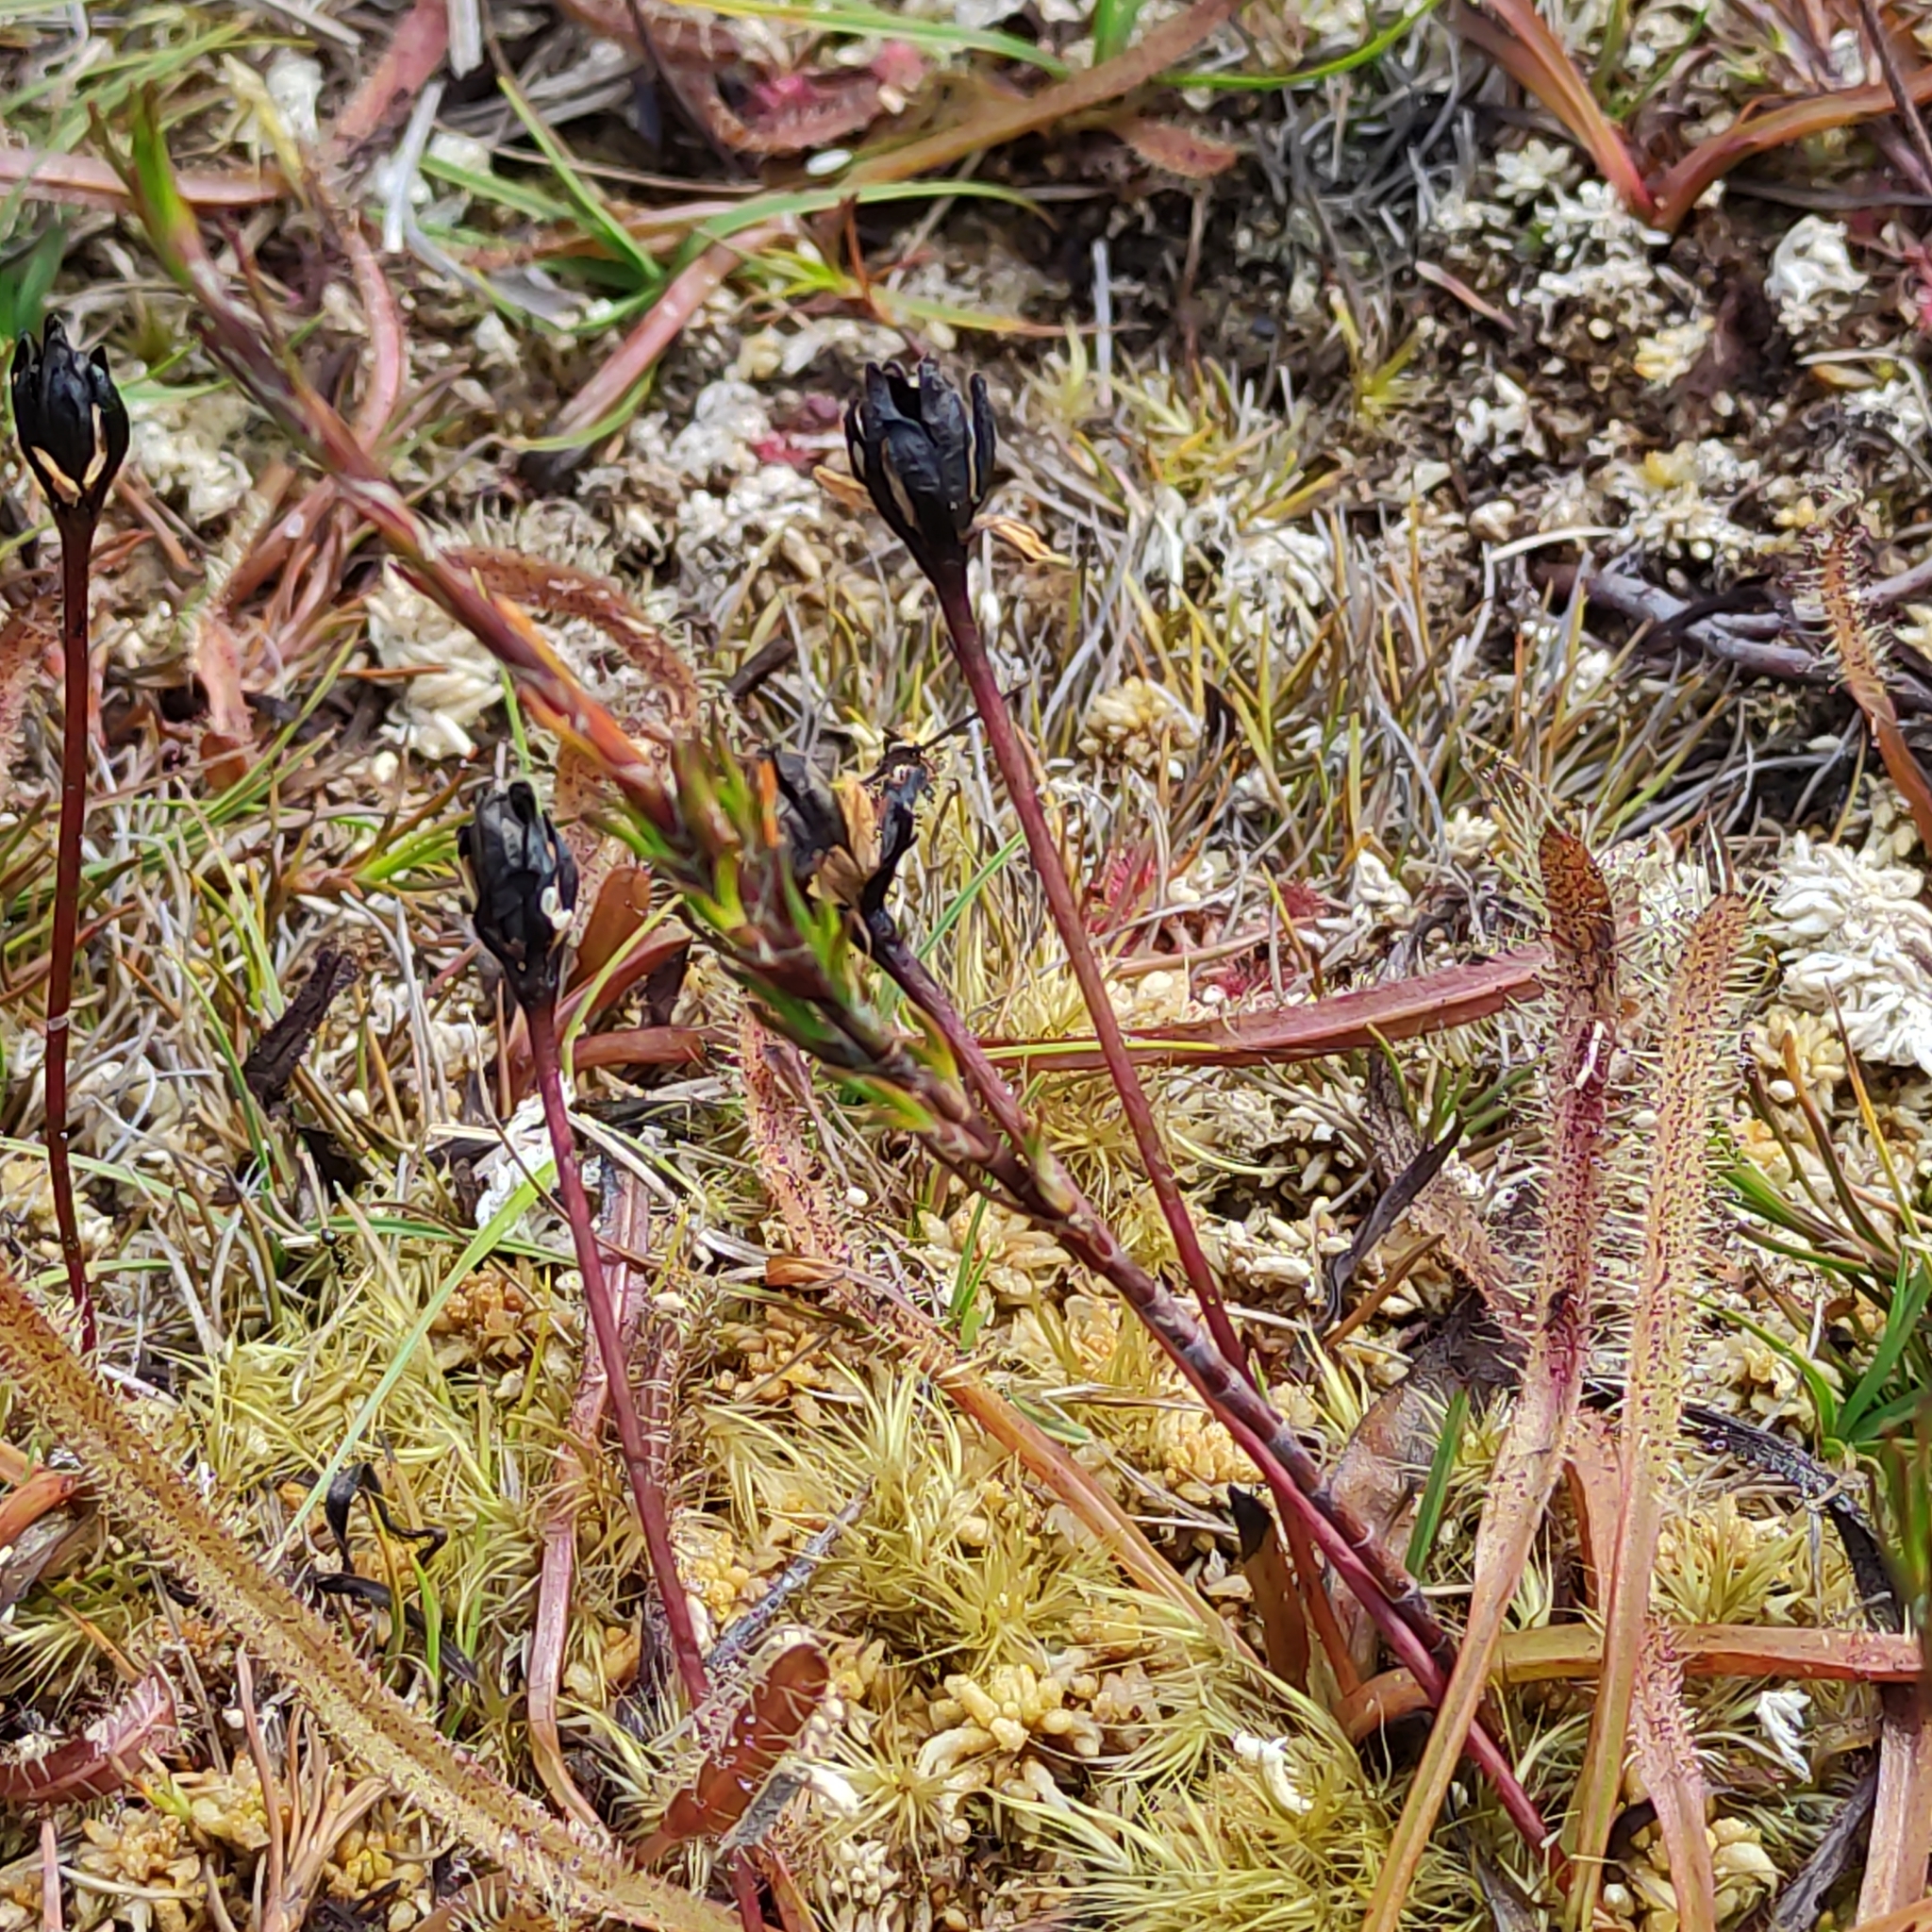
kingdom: Plantae
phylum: Tracheophyta
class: Magnoliopsida
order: Caryophyllales
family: Droseraceae
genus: Drosera
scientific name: Drosera arcturi
